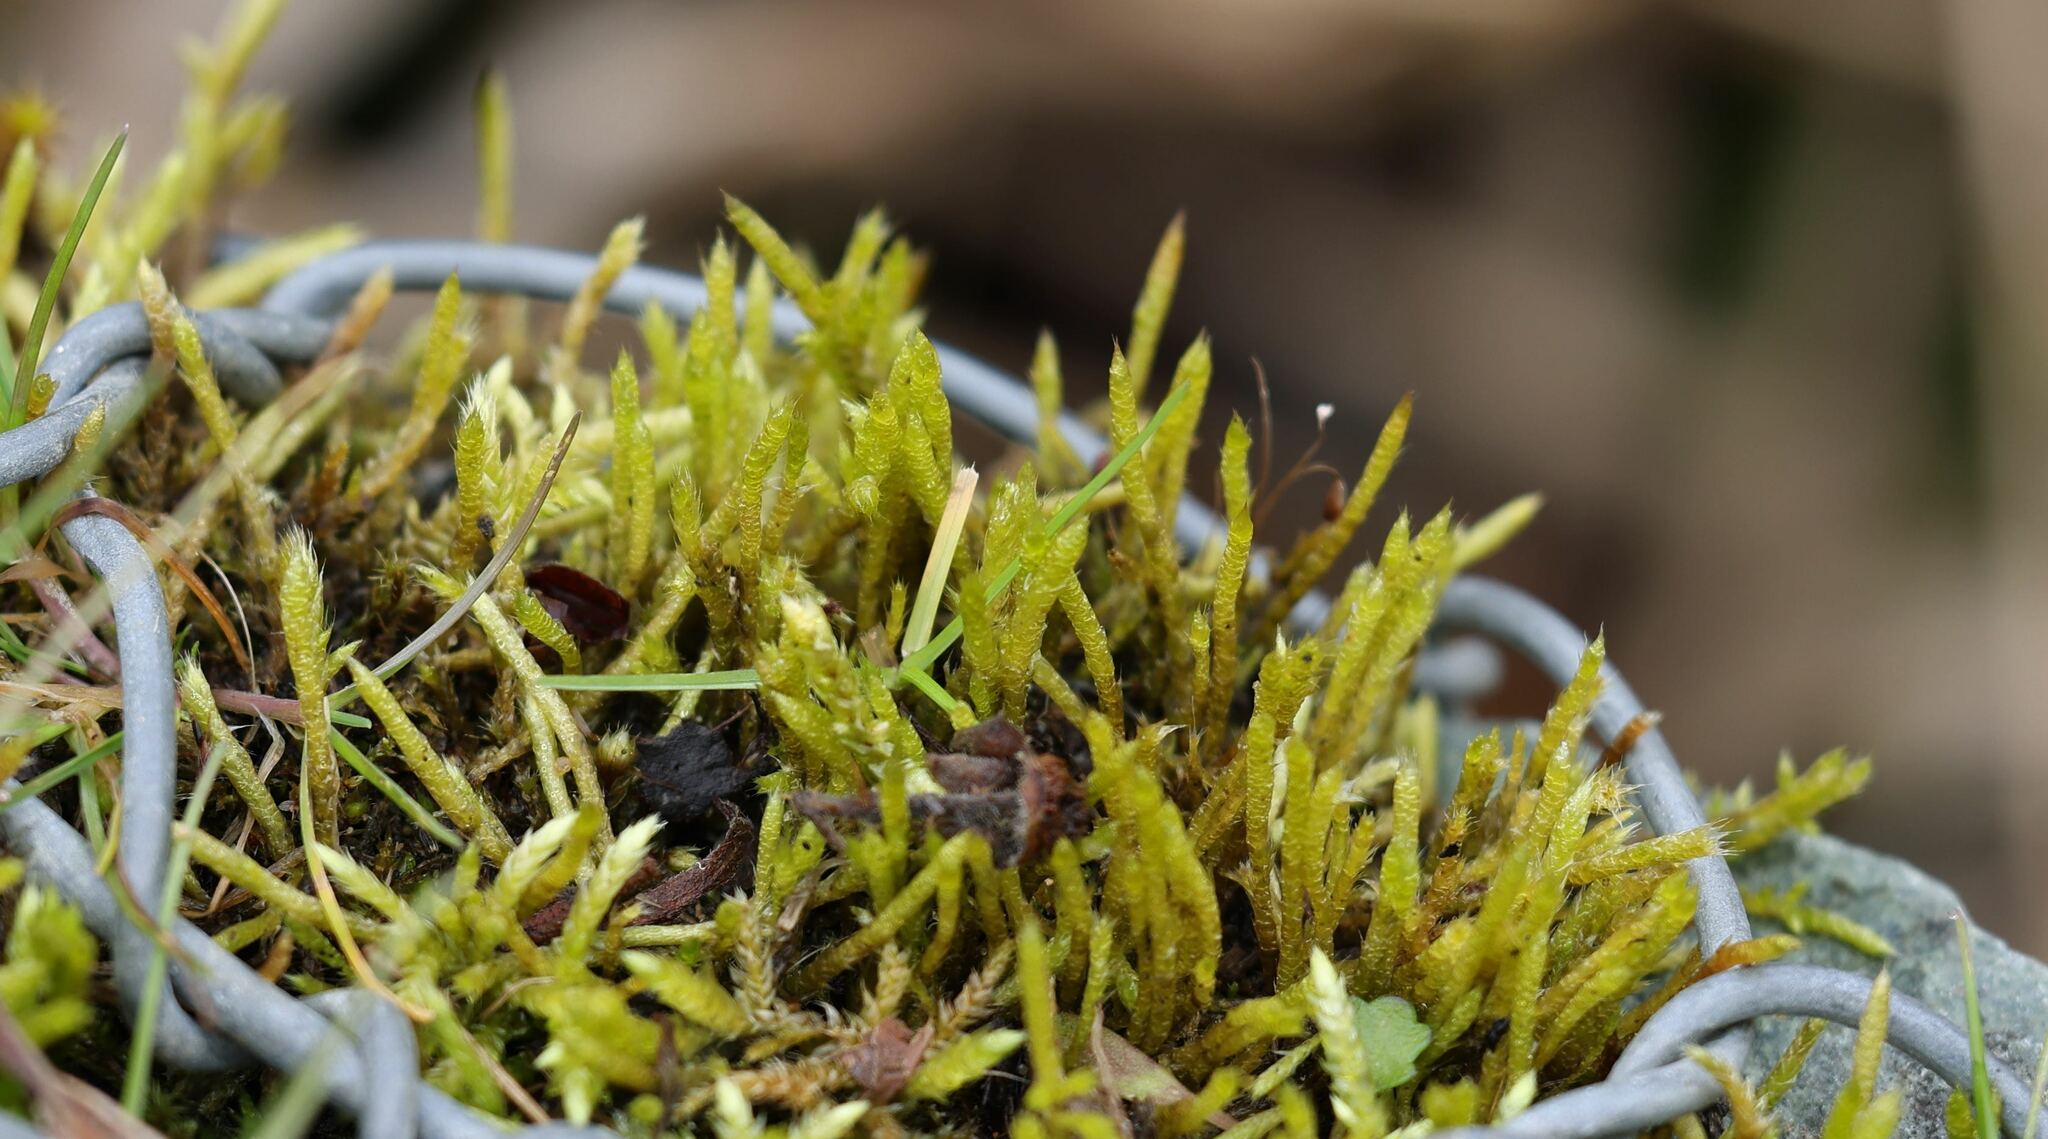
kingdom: Plantae
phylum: Bryophyta
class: Bryopsida
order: Hypnales
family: Brachytheciaceae
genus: Brachythecium
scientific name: Brachythecium albicans
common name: Whitish ragged moss
